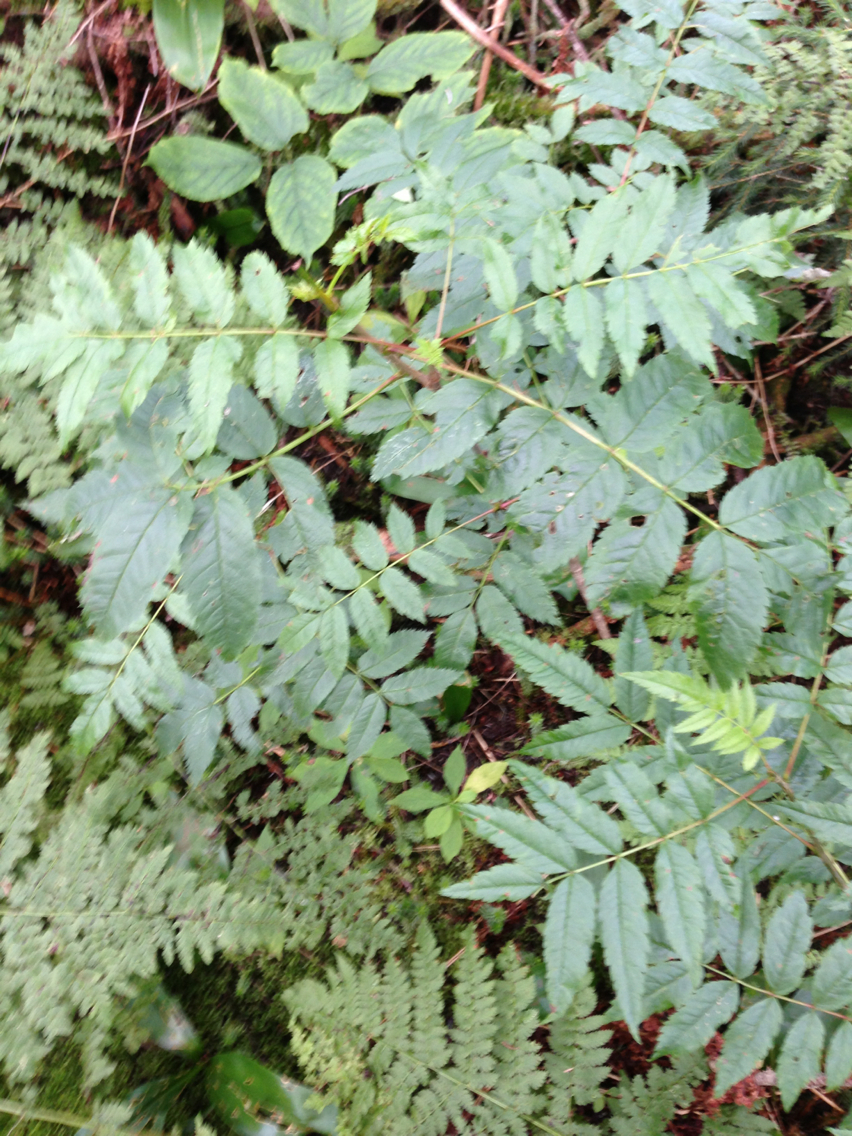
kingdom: Plantae
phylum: Tracheophyta
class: Magnoliopsida
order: Rosales
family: Rosaceae
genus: Sorbus
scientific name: Sorbus americana
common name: American mountain-ash
